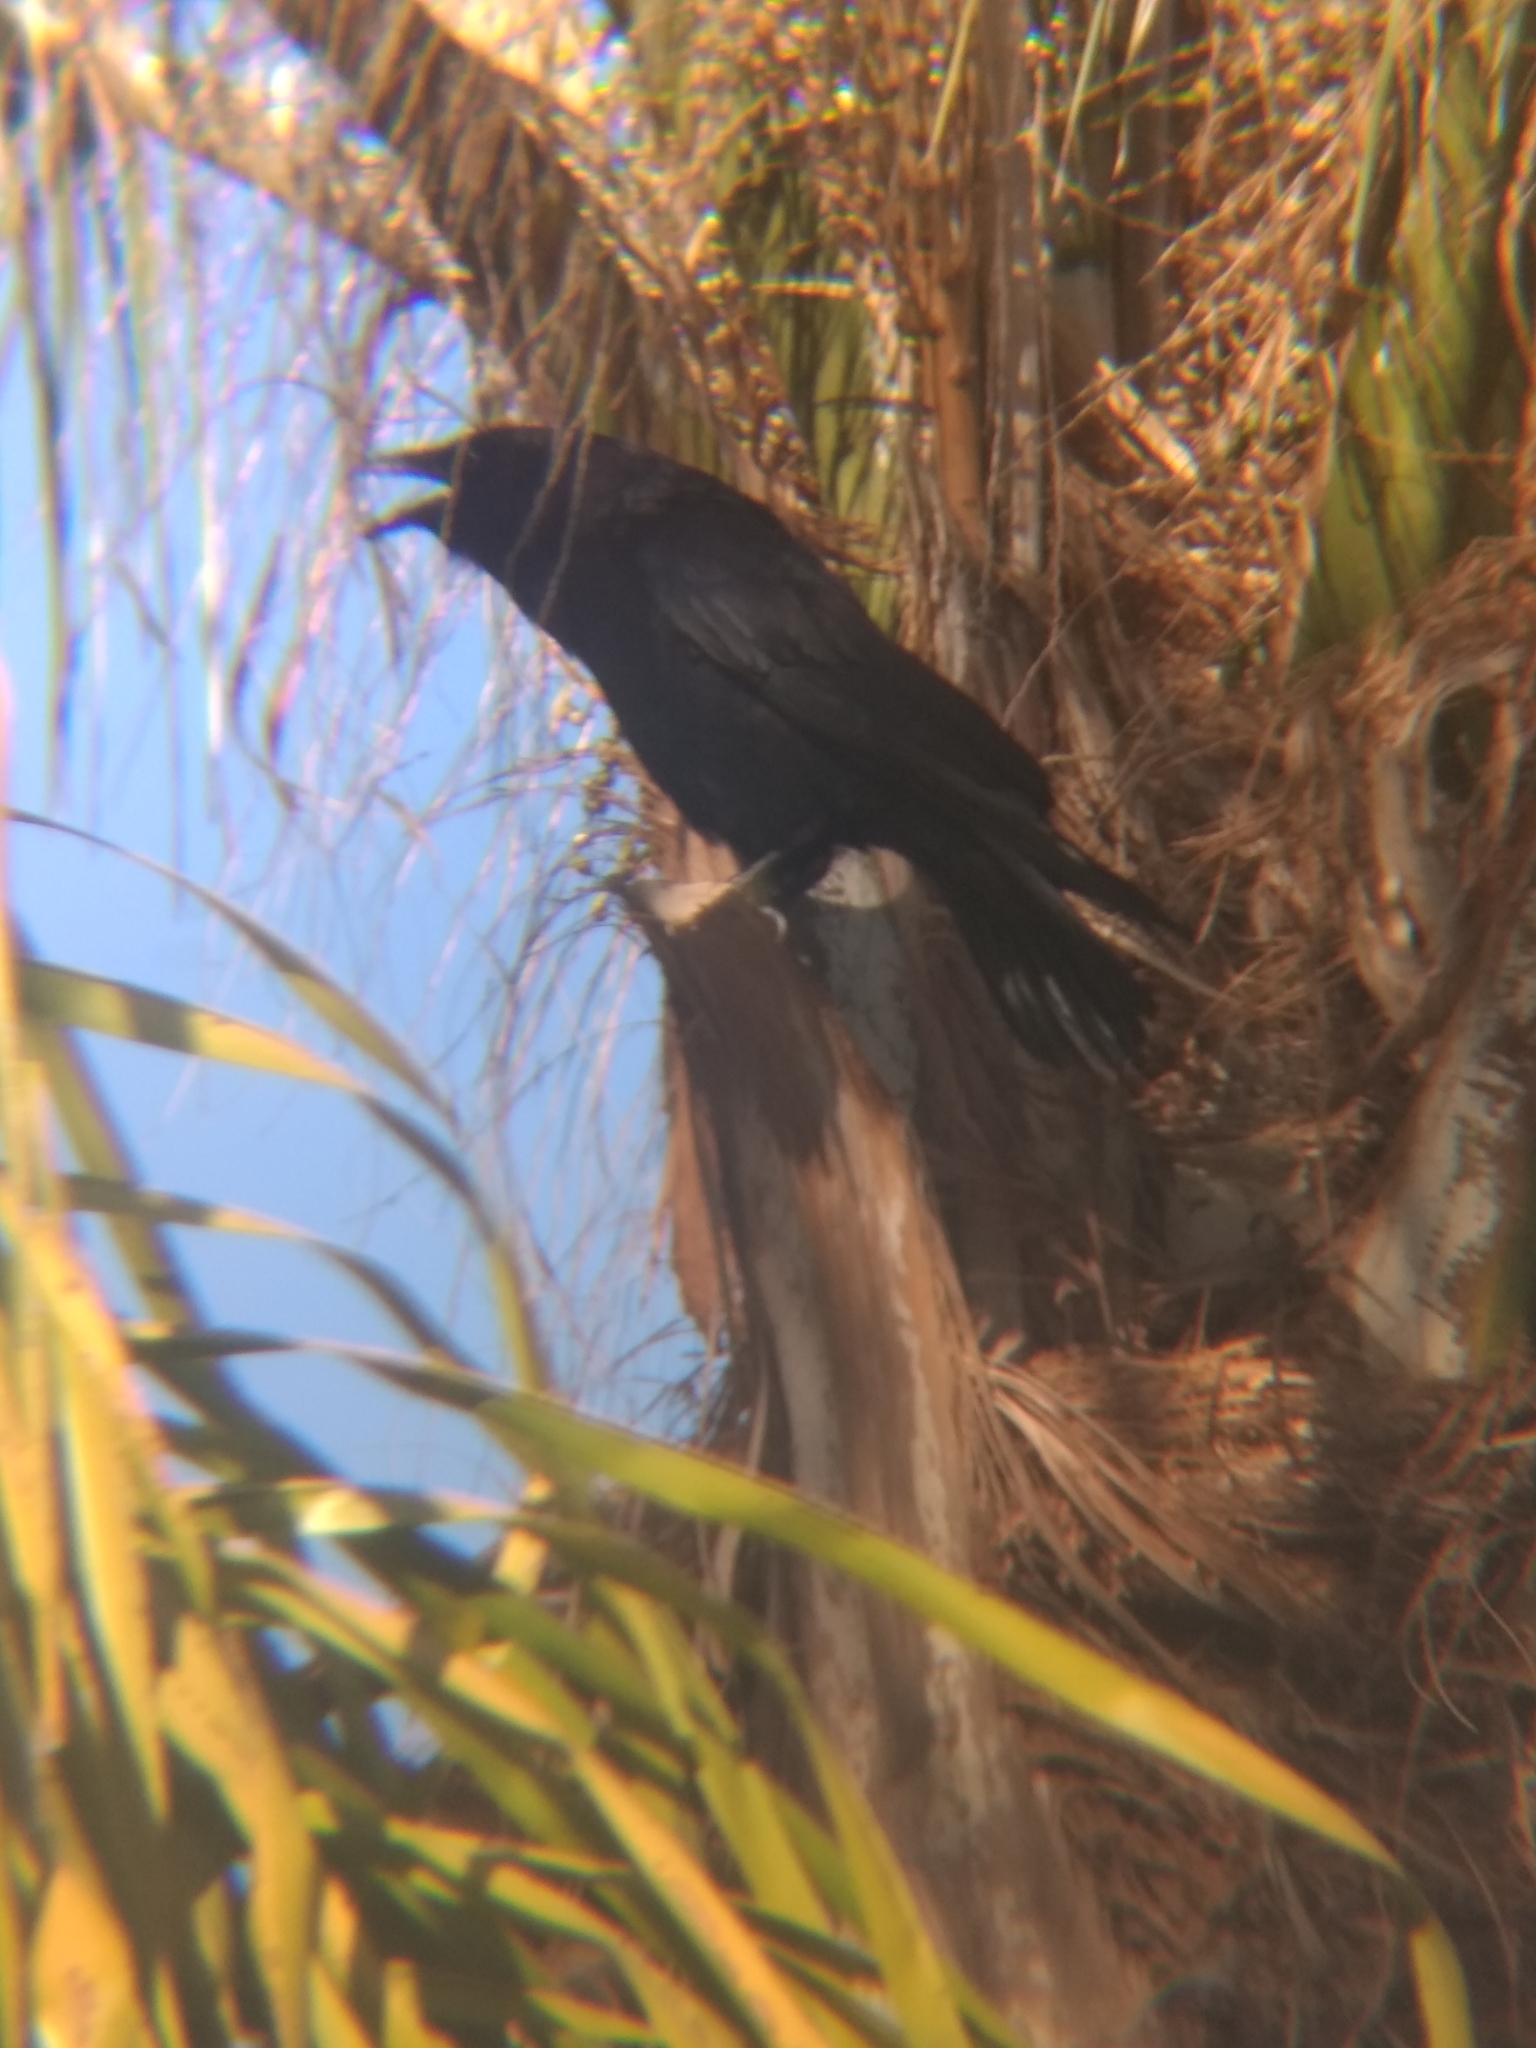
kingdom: Animalia
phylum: Chordata
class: Aves
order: Passeriformes
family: Corvidae
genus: Corvus
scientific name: Corvus brachyrhynchos
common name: American crow
